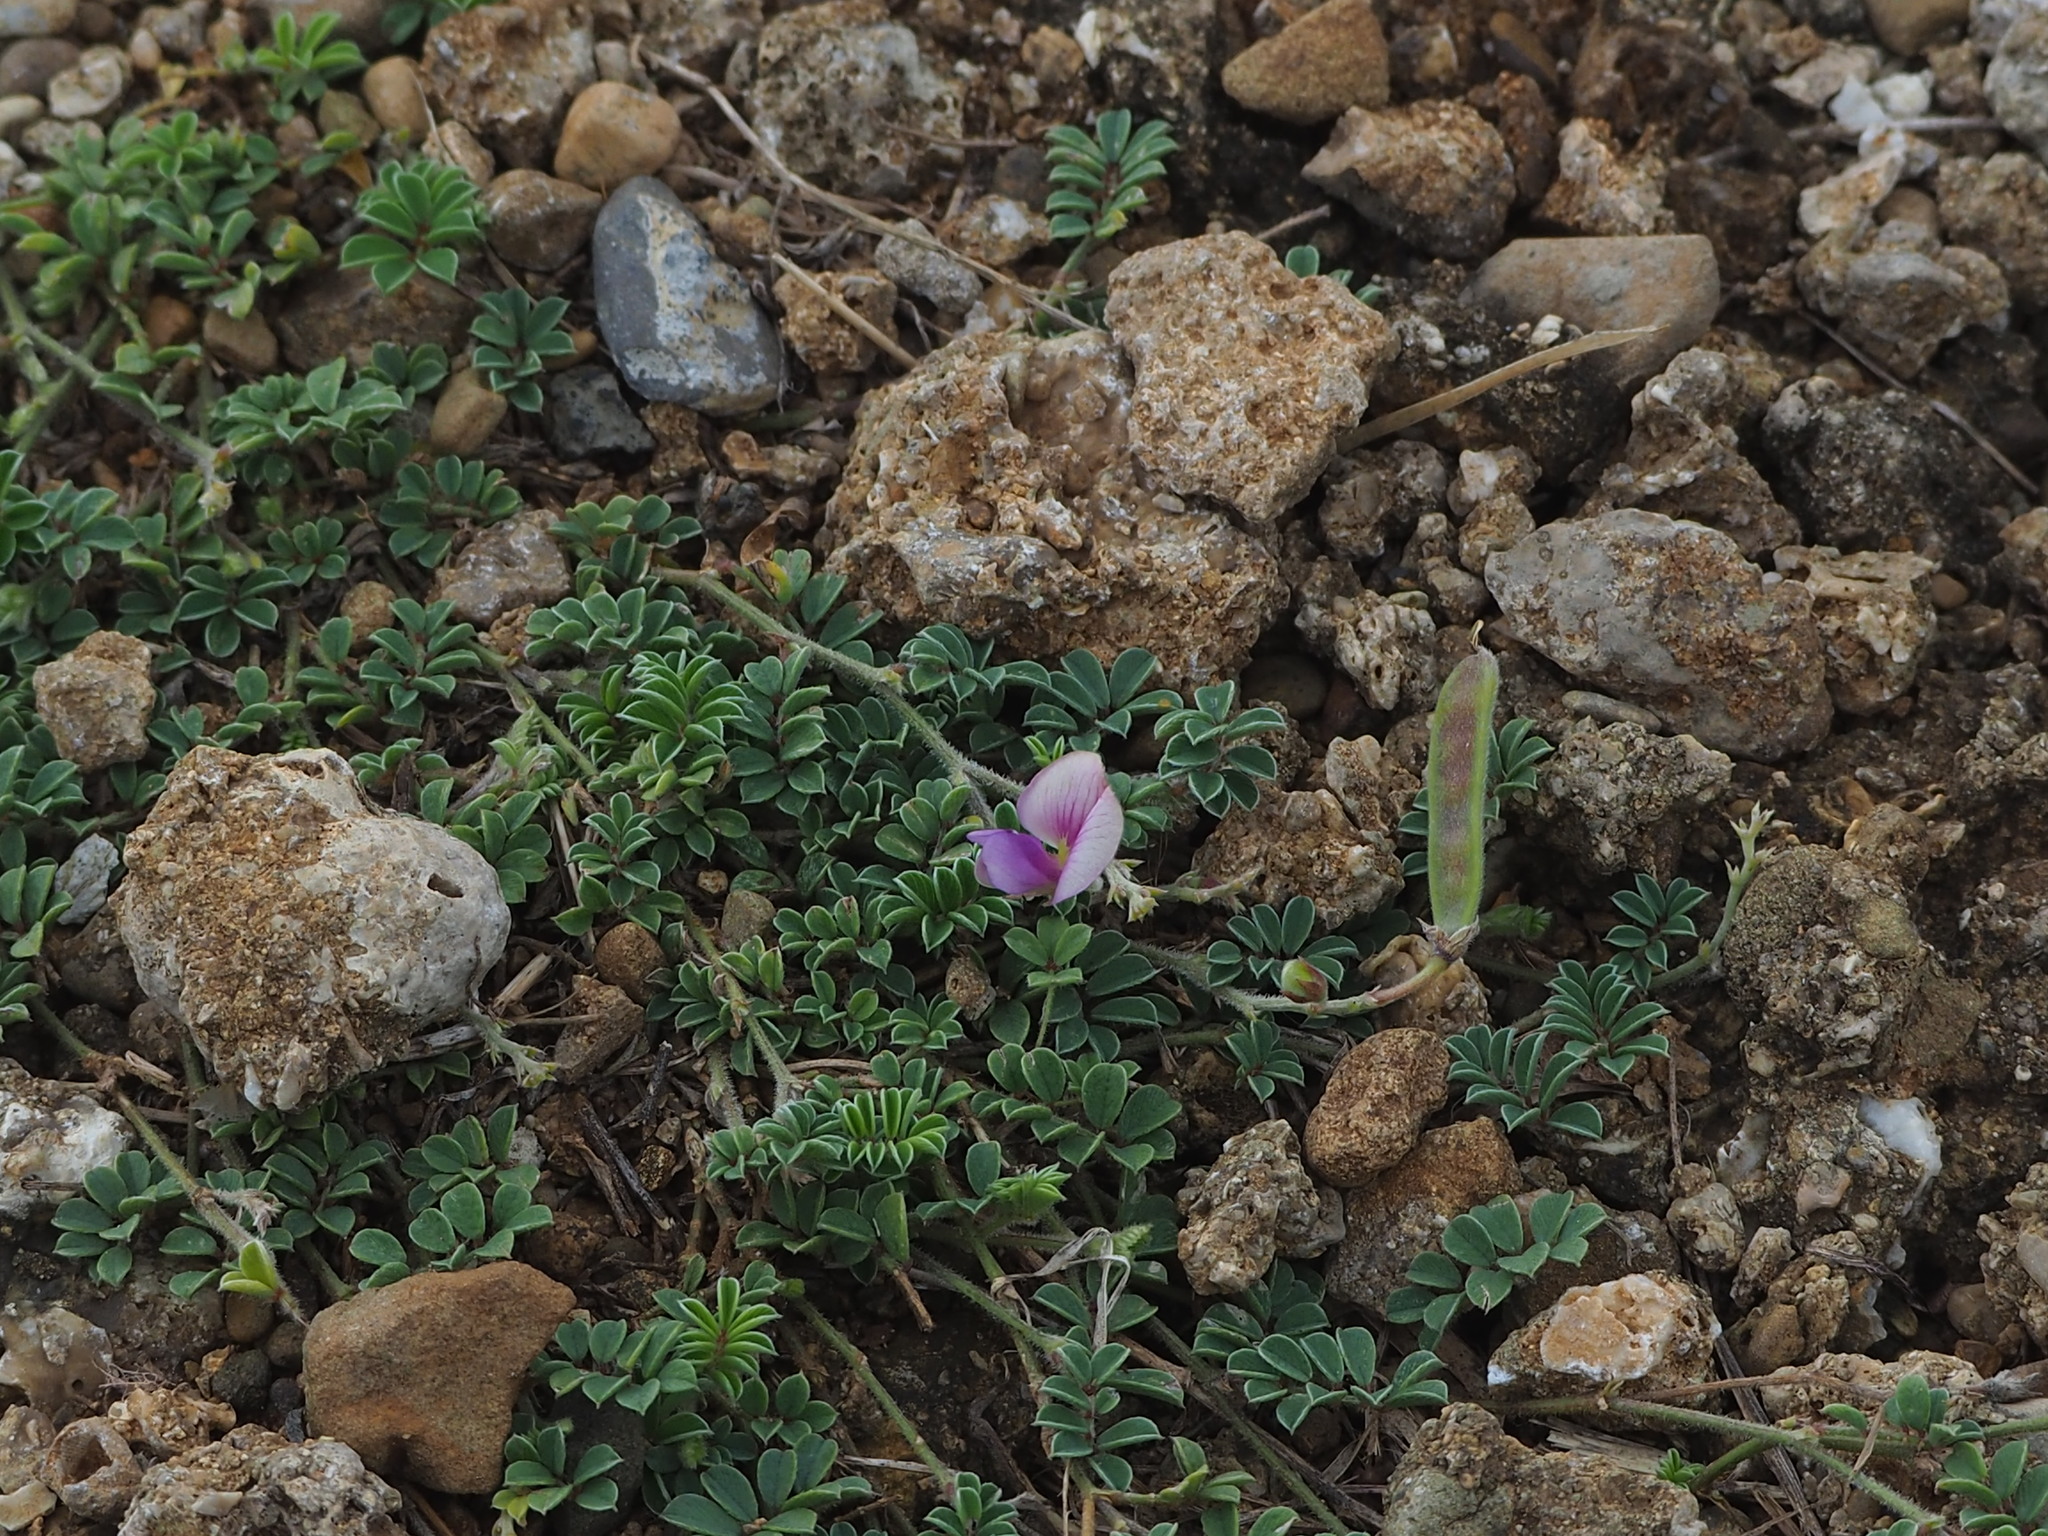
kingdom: Plantae
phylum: Tracheophyta
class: Magnoliopsida
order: Fabales
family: Fabaceae
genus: Tephrosia
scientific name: Tephrosia obovata
